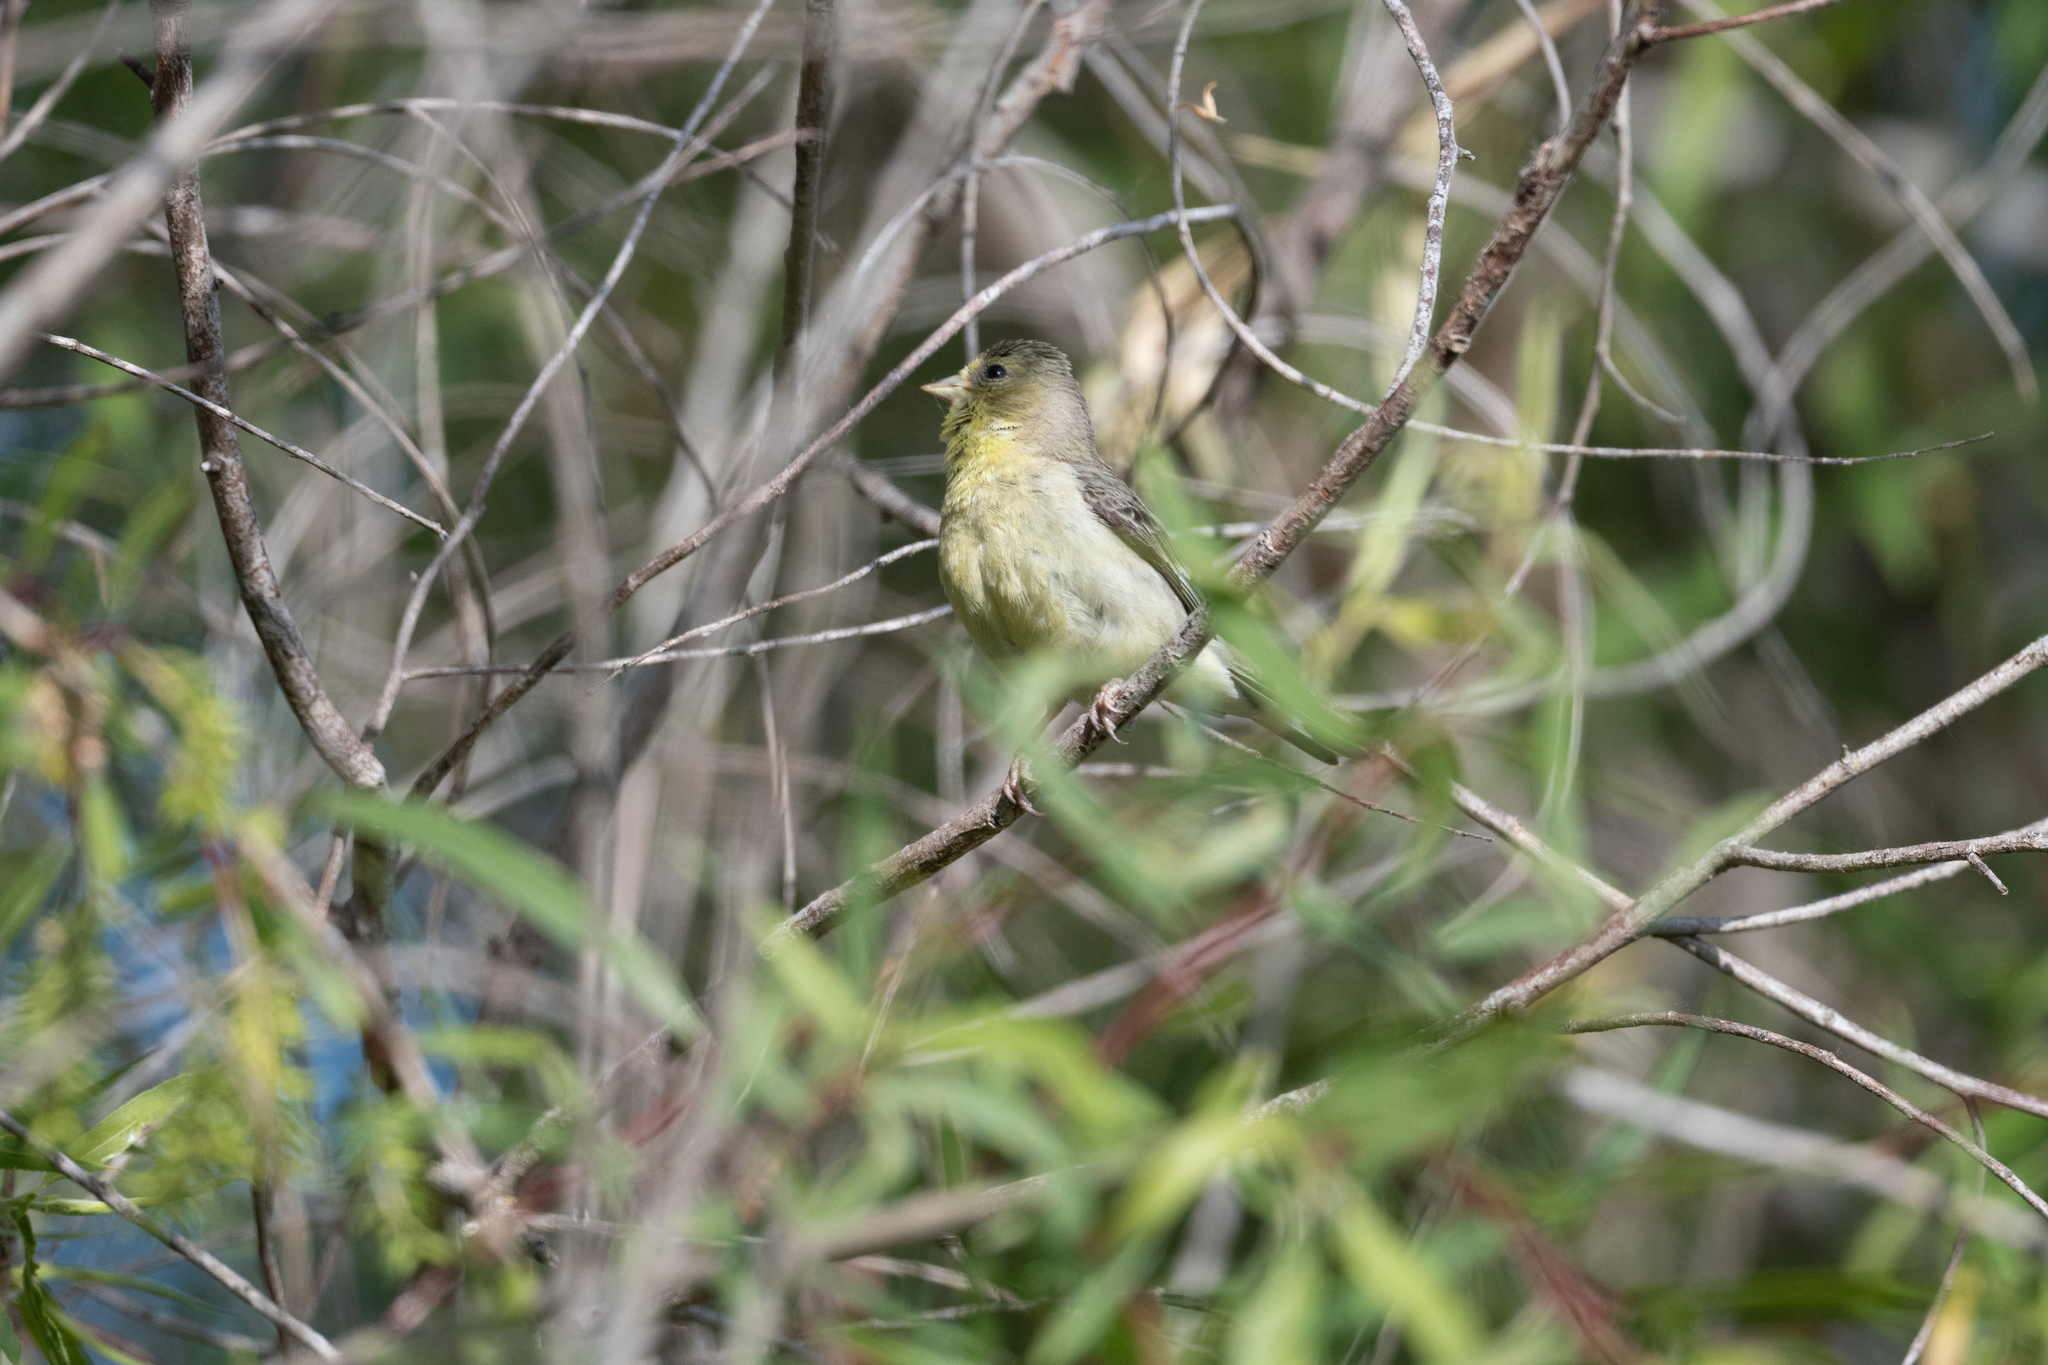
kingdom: Animalia
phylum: Chordata
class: Aves
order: Passeriformes
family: Fringillidae
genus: Spinus
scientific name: Spinus psaltria
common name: Lesser goldfinch
